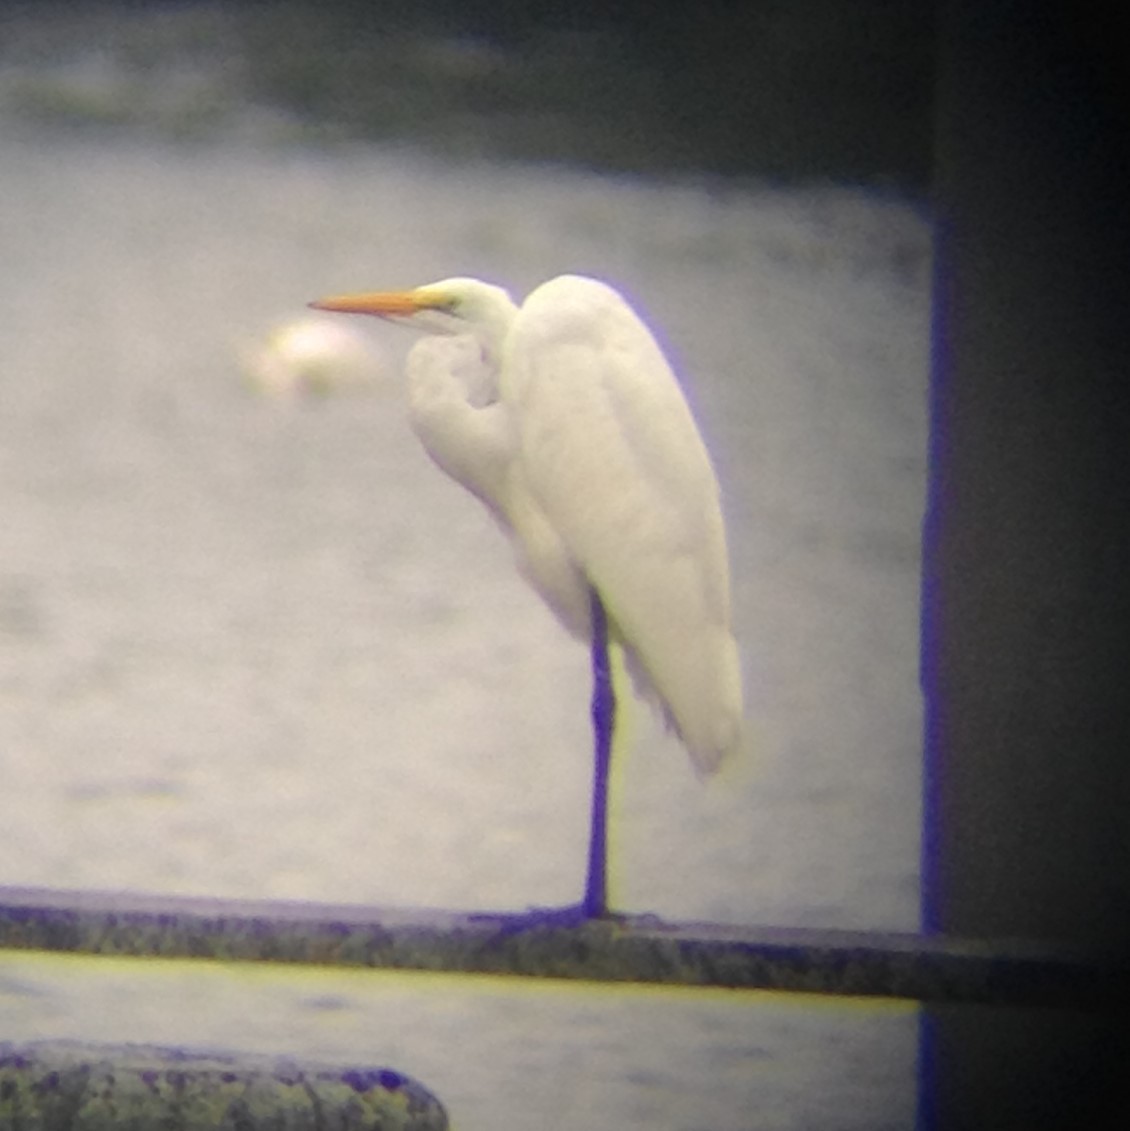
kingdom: Animalia
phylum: Chordata
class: Aves
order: Pelecaniformes
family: Ardeidae
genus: Ardea
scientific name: Ardea alba
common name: Great egret
